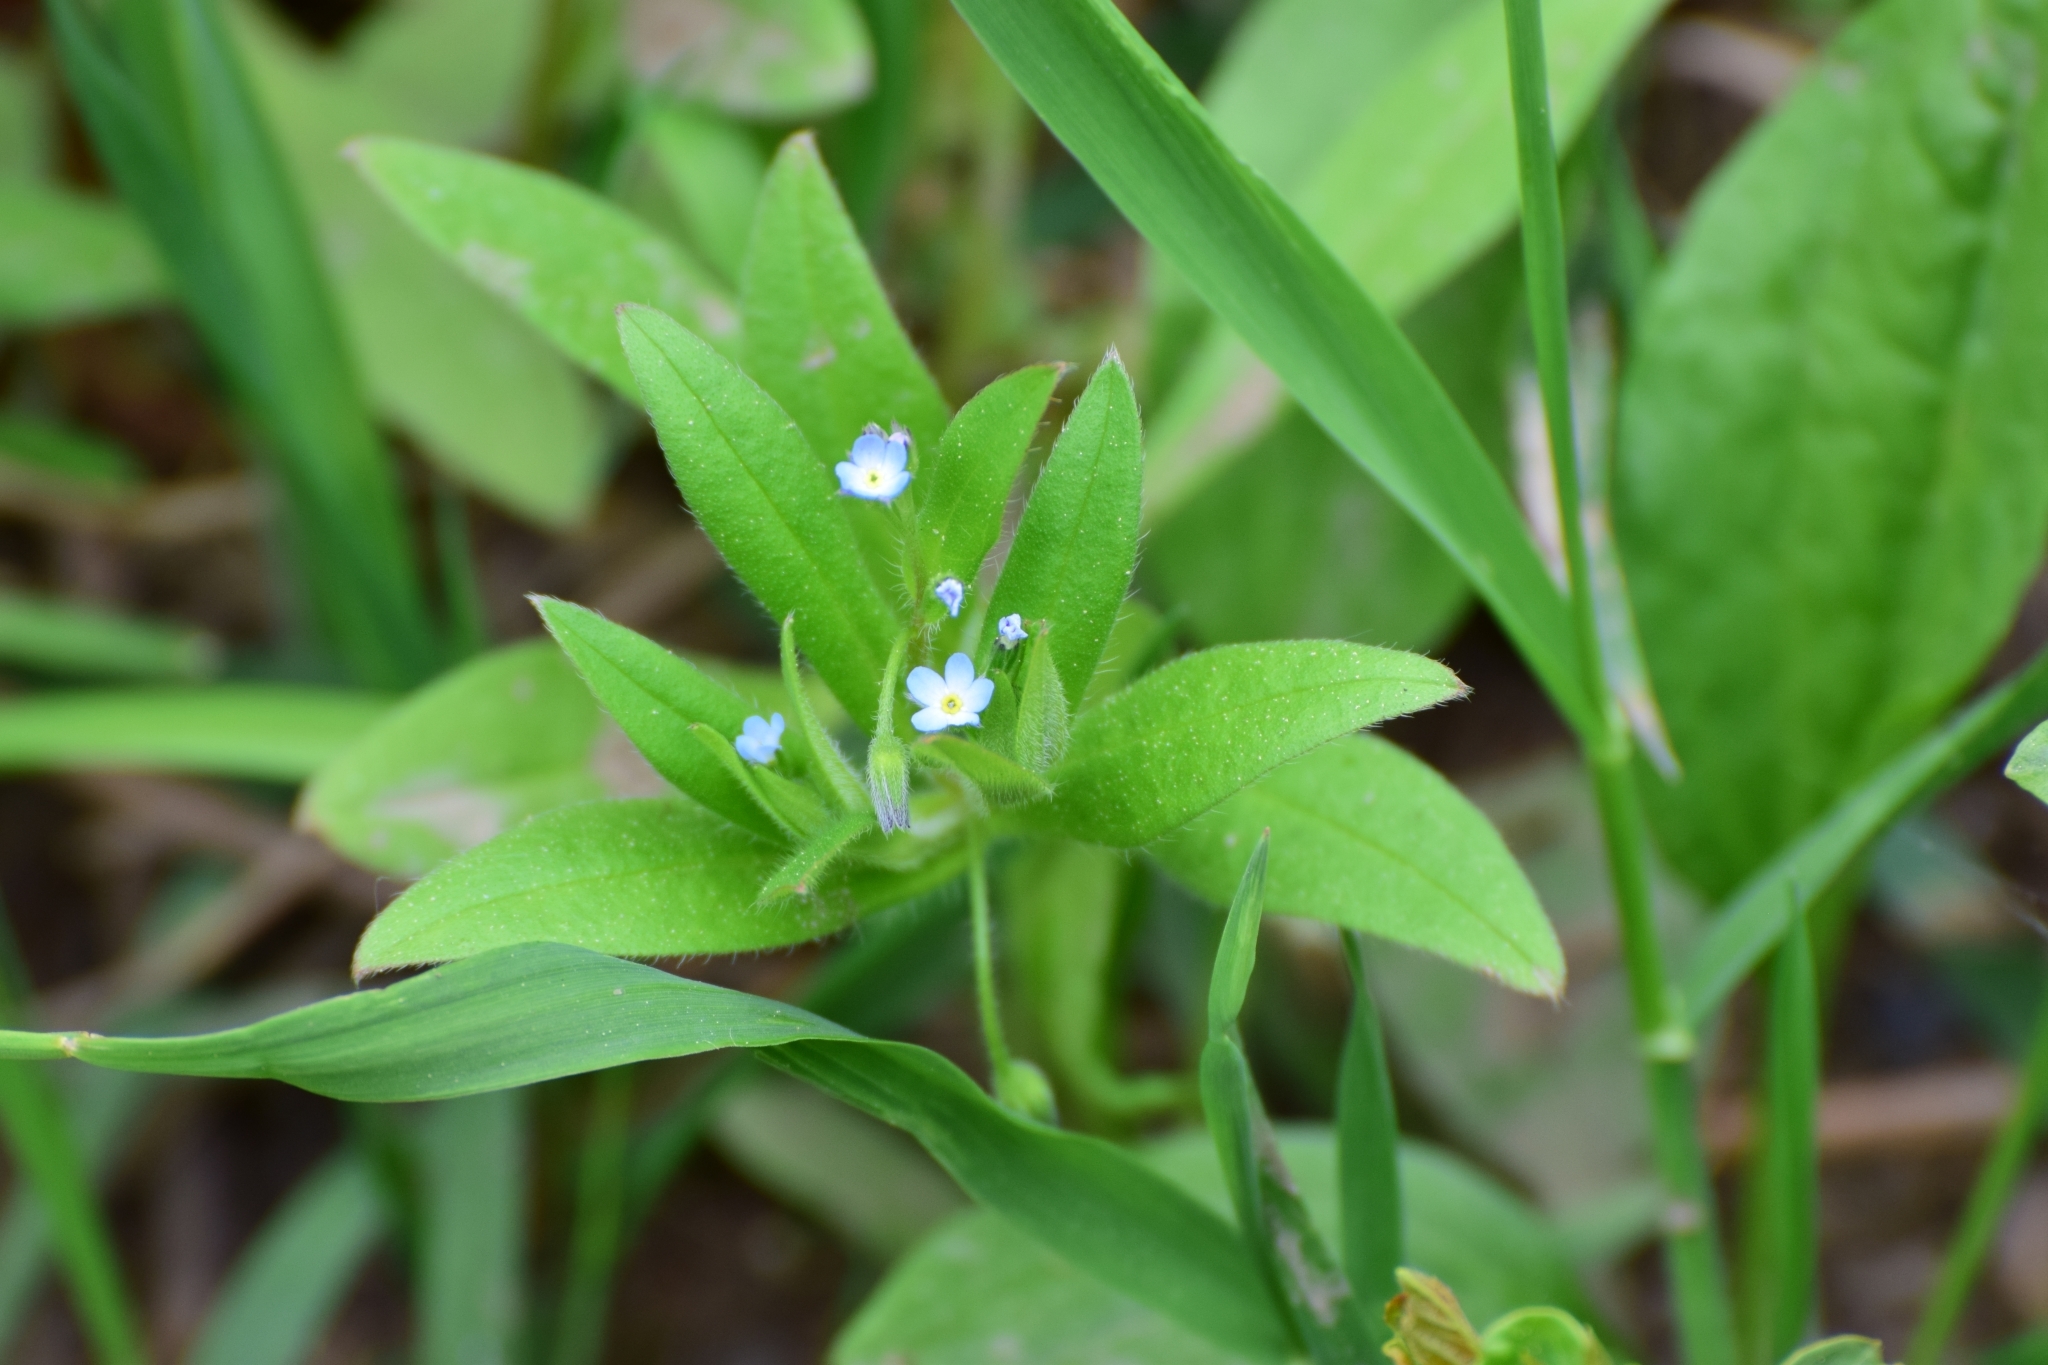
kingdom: Plantae
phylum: Tracheophyta
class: Magnoliopsida
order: Boraginales
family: Boraginaceae
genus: Myosotis
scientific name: Myosotis sparsiflora
